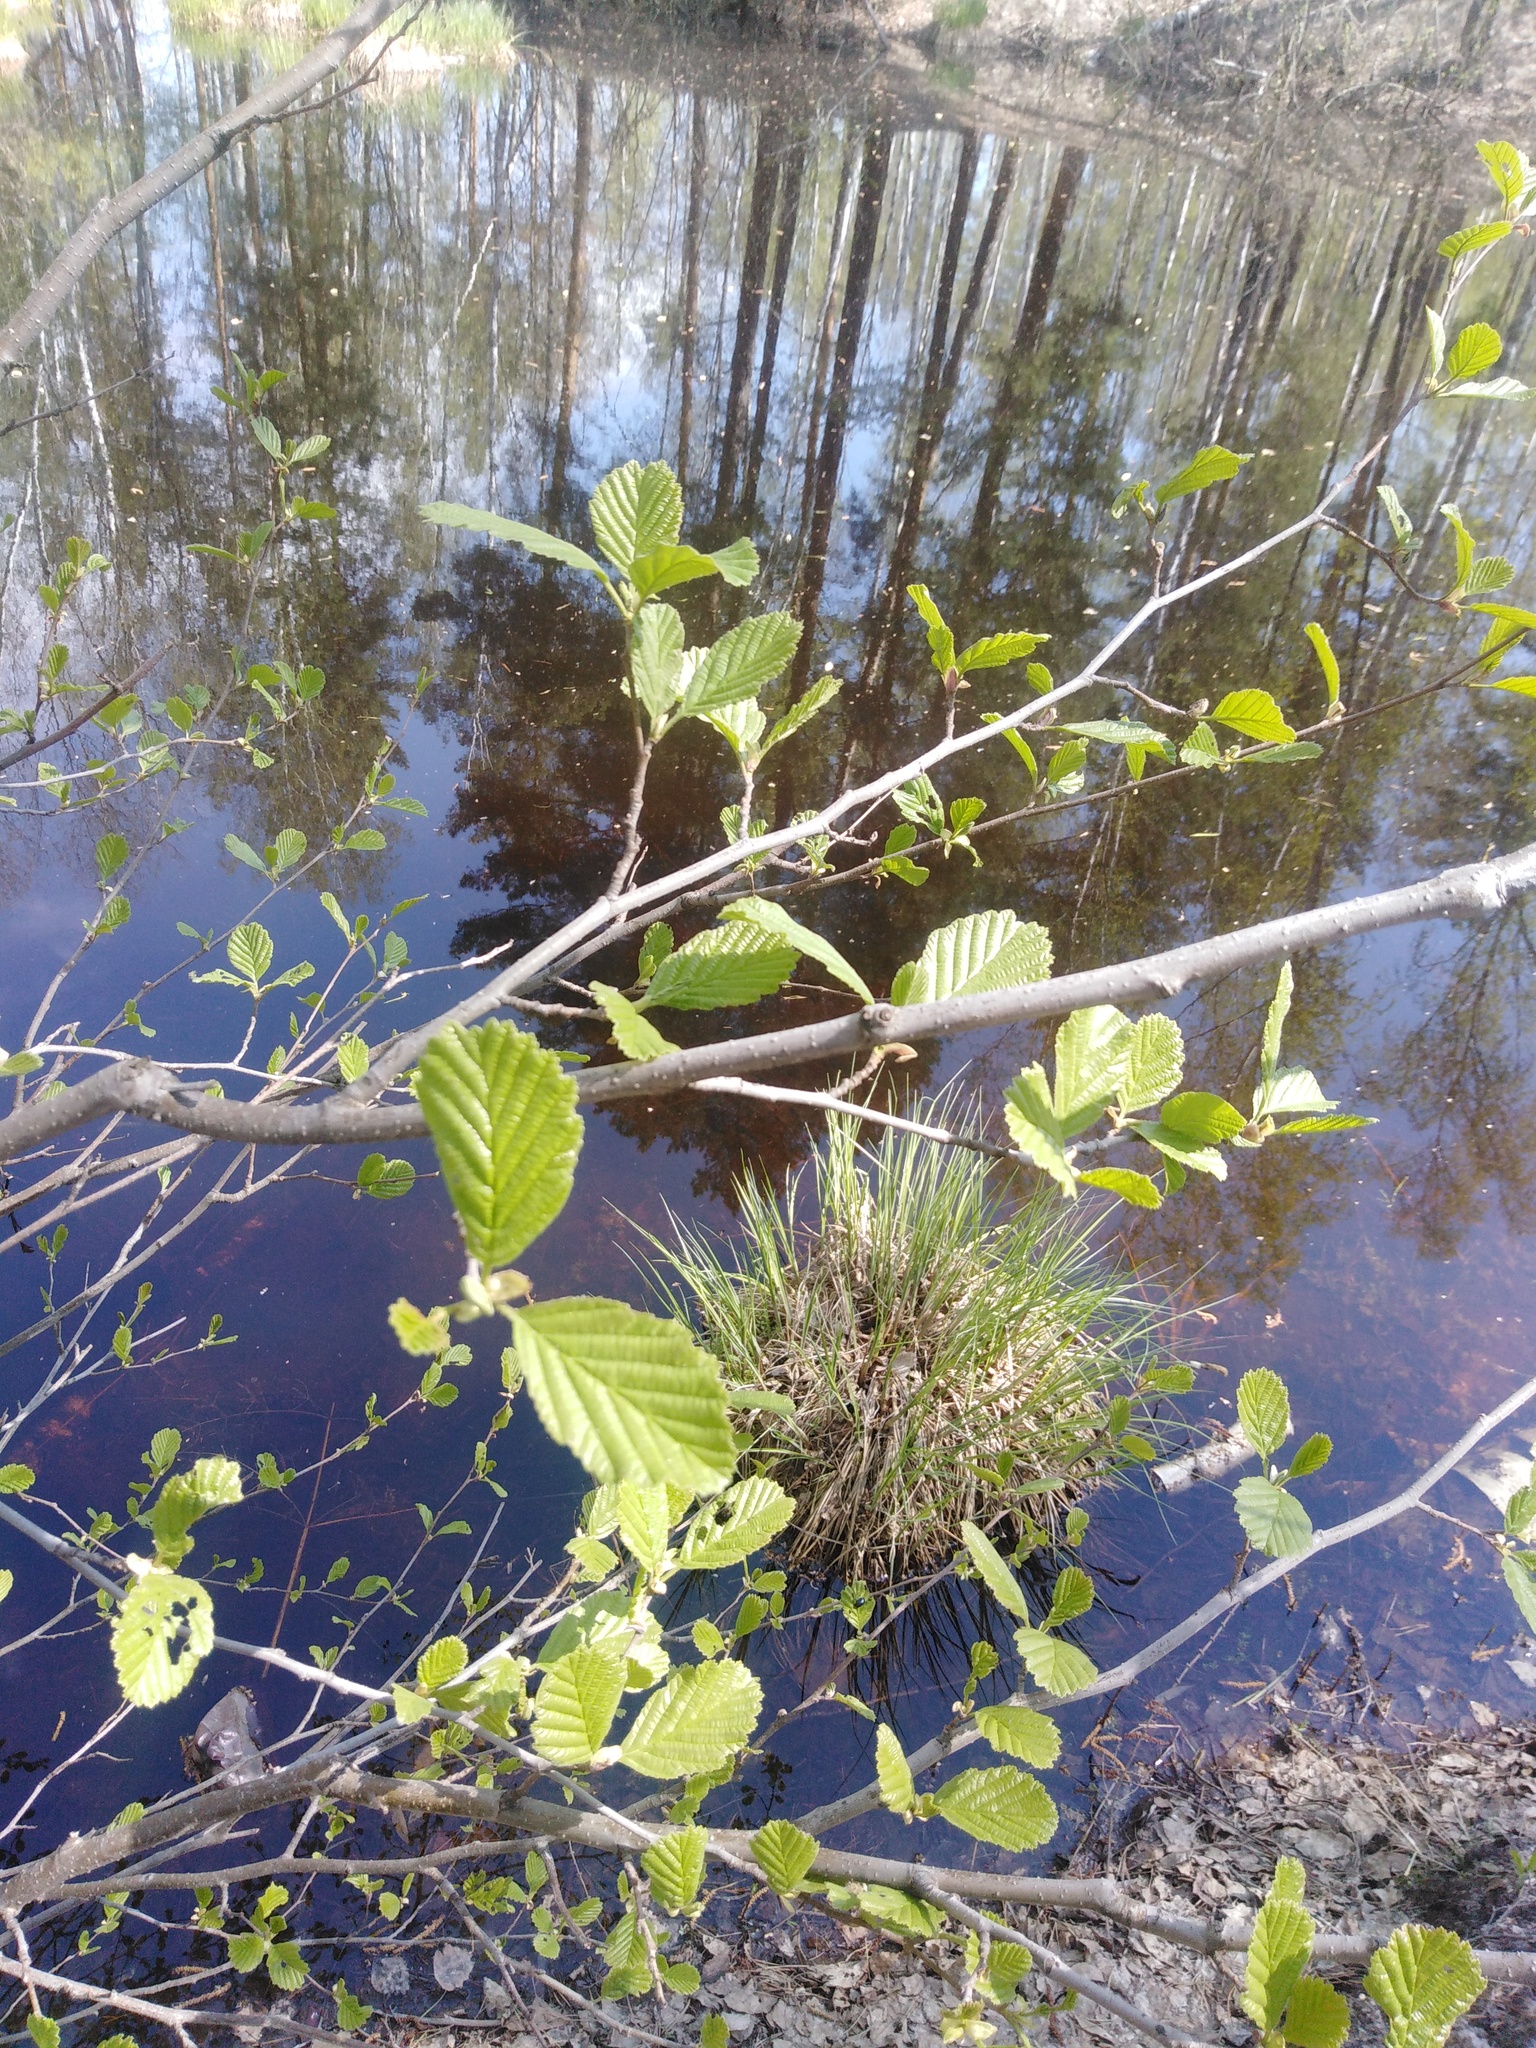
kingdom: Plantae
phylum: Tracheophyta
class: Magnoliopsida
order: Fagales
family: Betulaceae
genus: Alnus
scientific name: Alnus glutinosa
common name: Black alder
